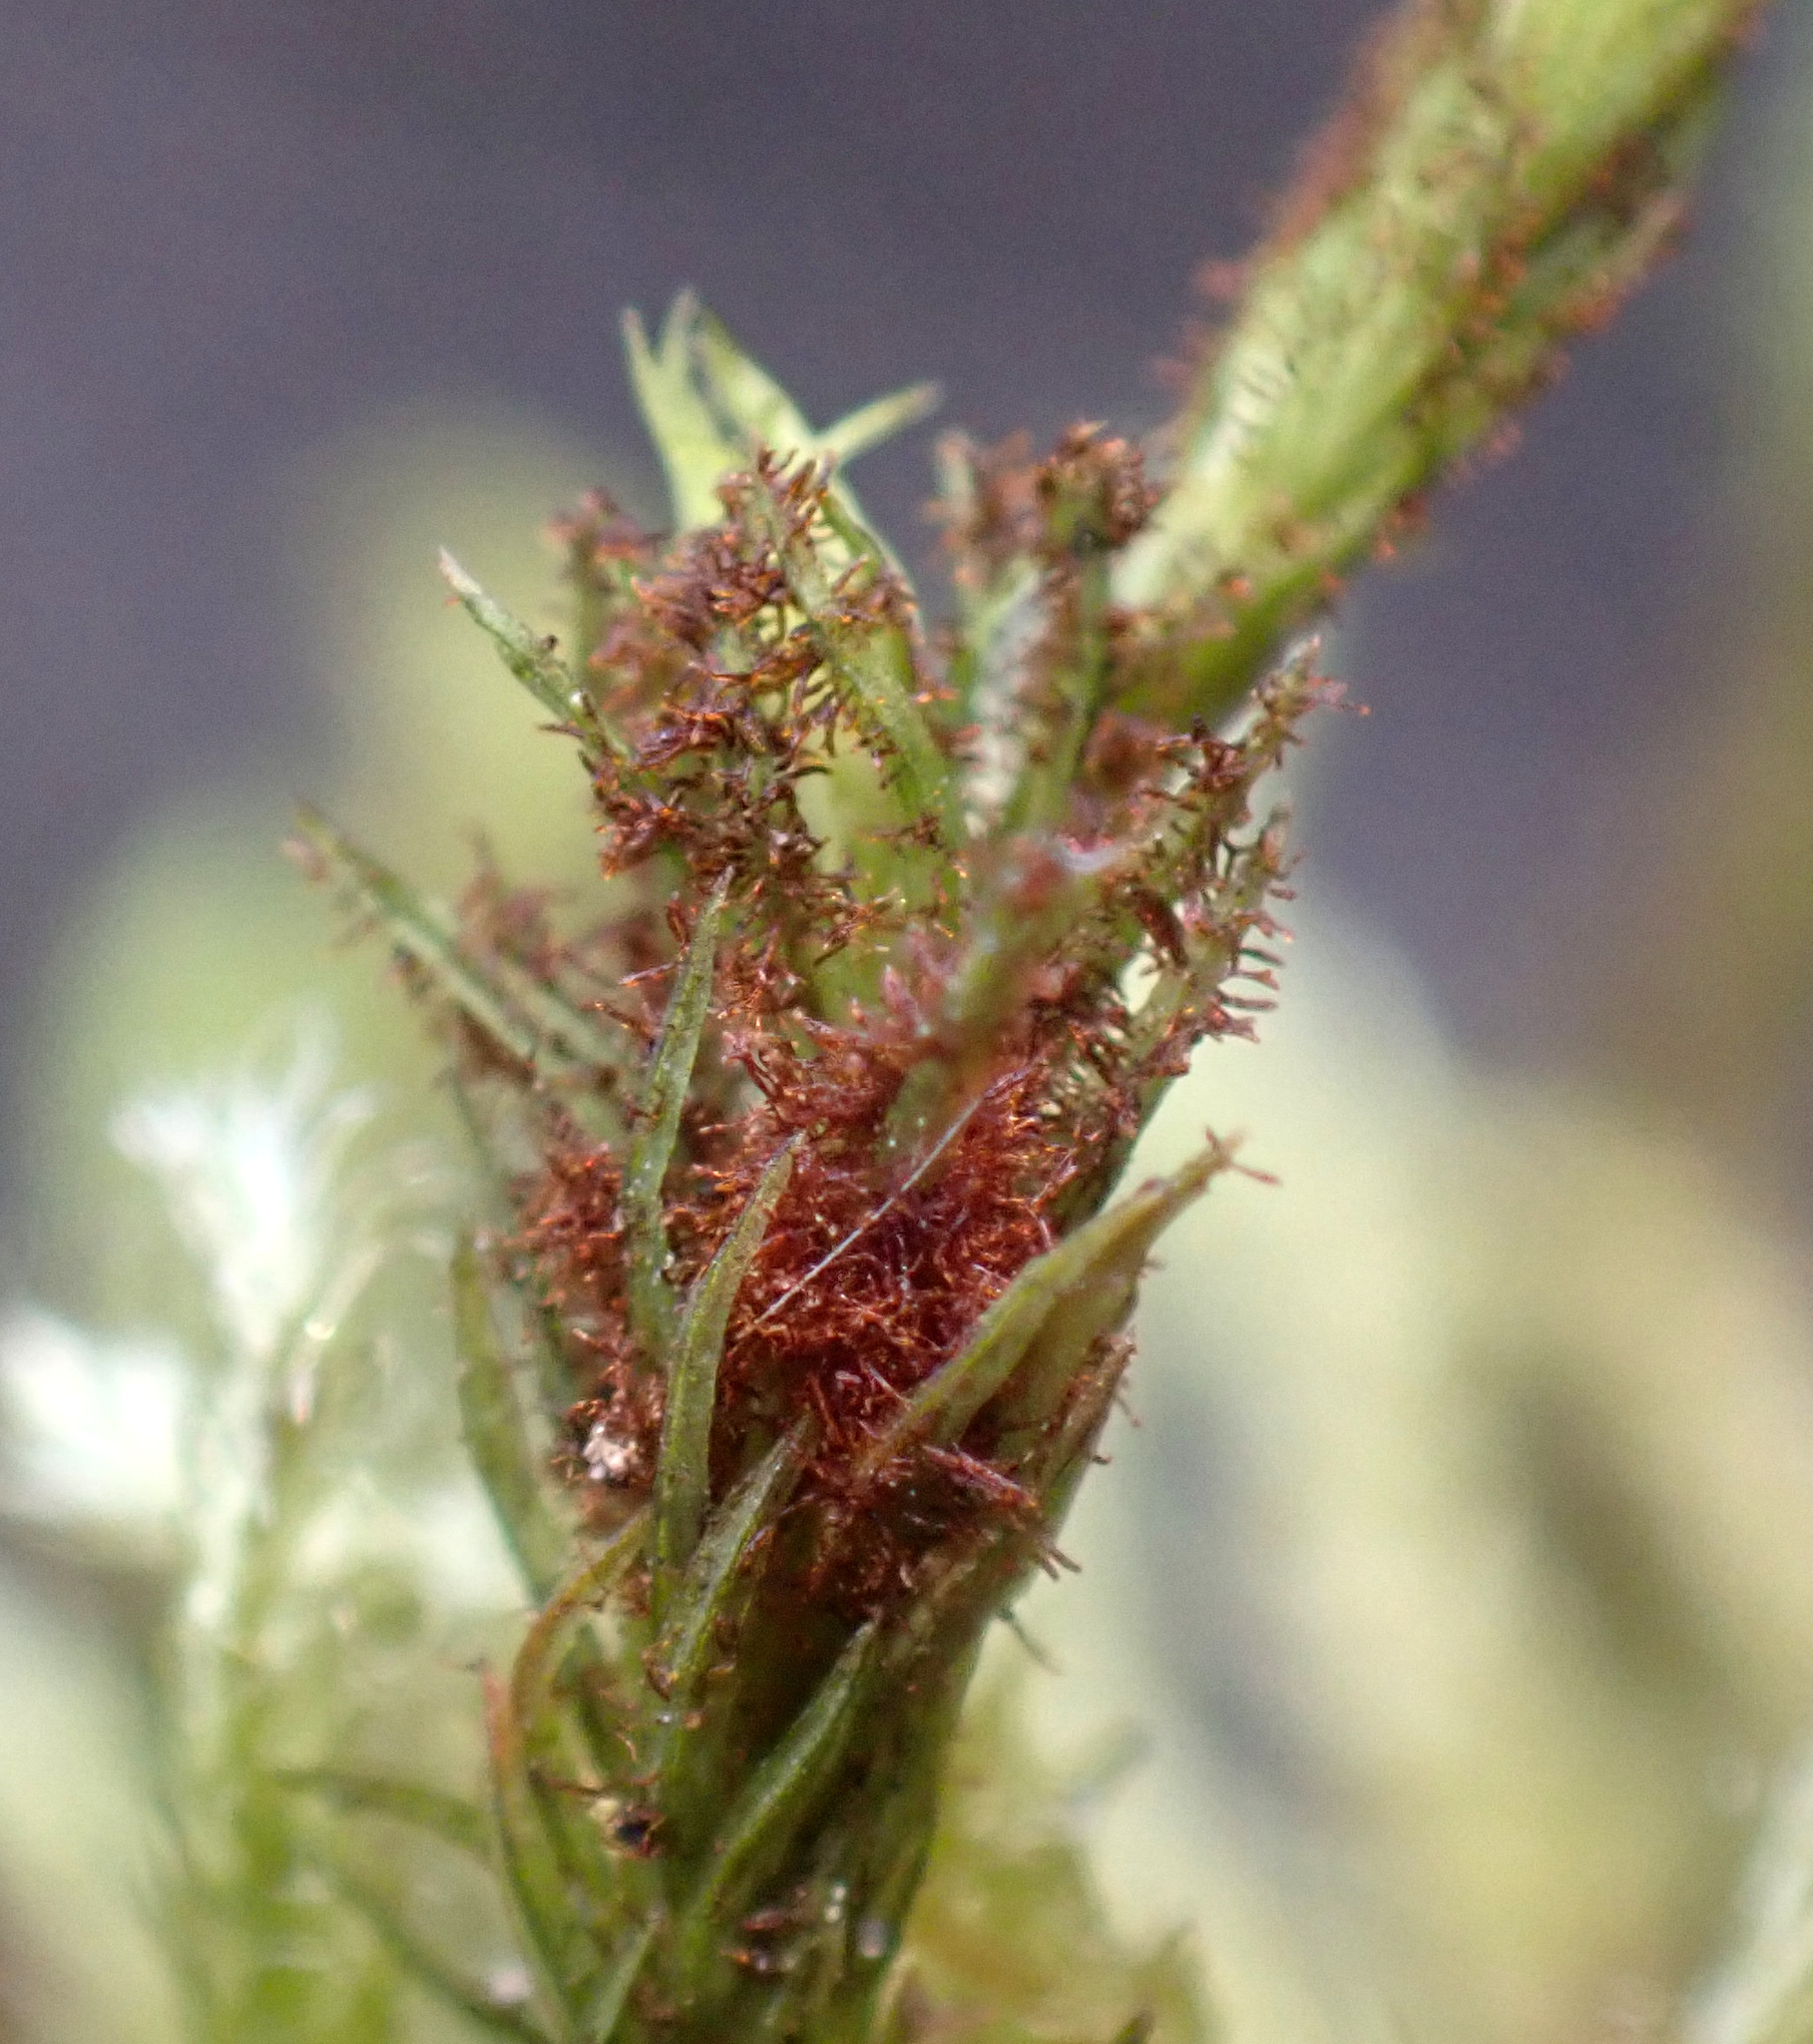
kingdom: Plantae
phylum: Bryophyta
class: Bryopsida
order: Orthotrichales
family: Orthotrichaceae
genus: Pulvigera
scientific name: Pulvigera lyellii
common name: Lyell's bristle-moss
